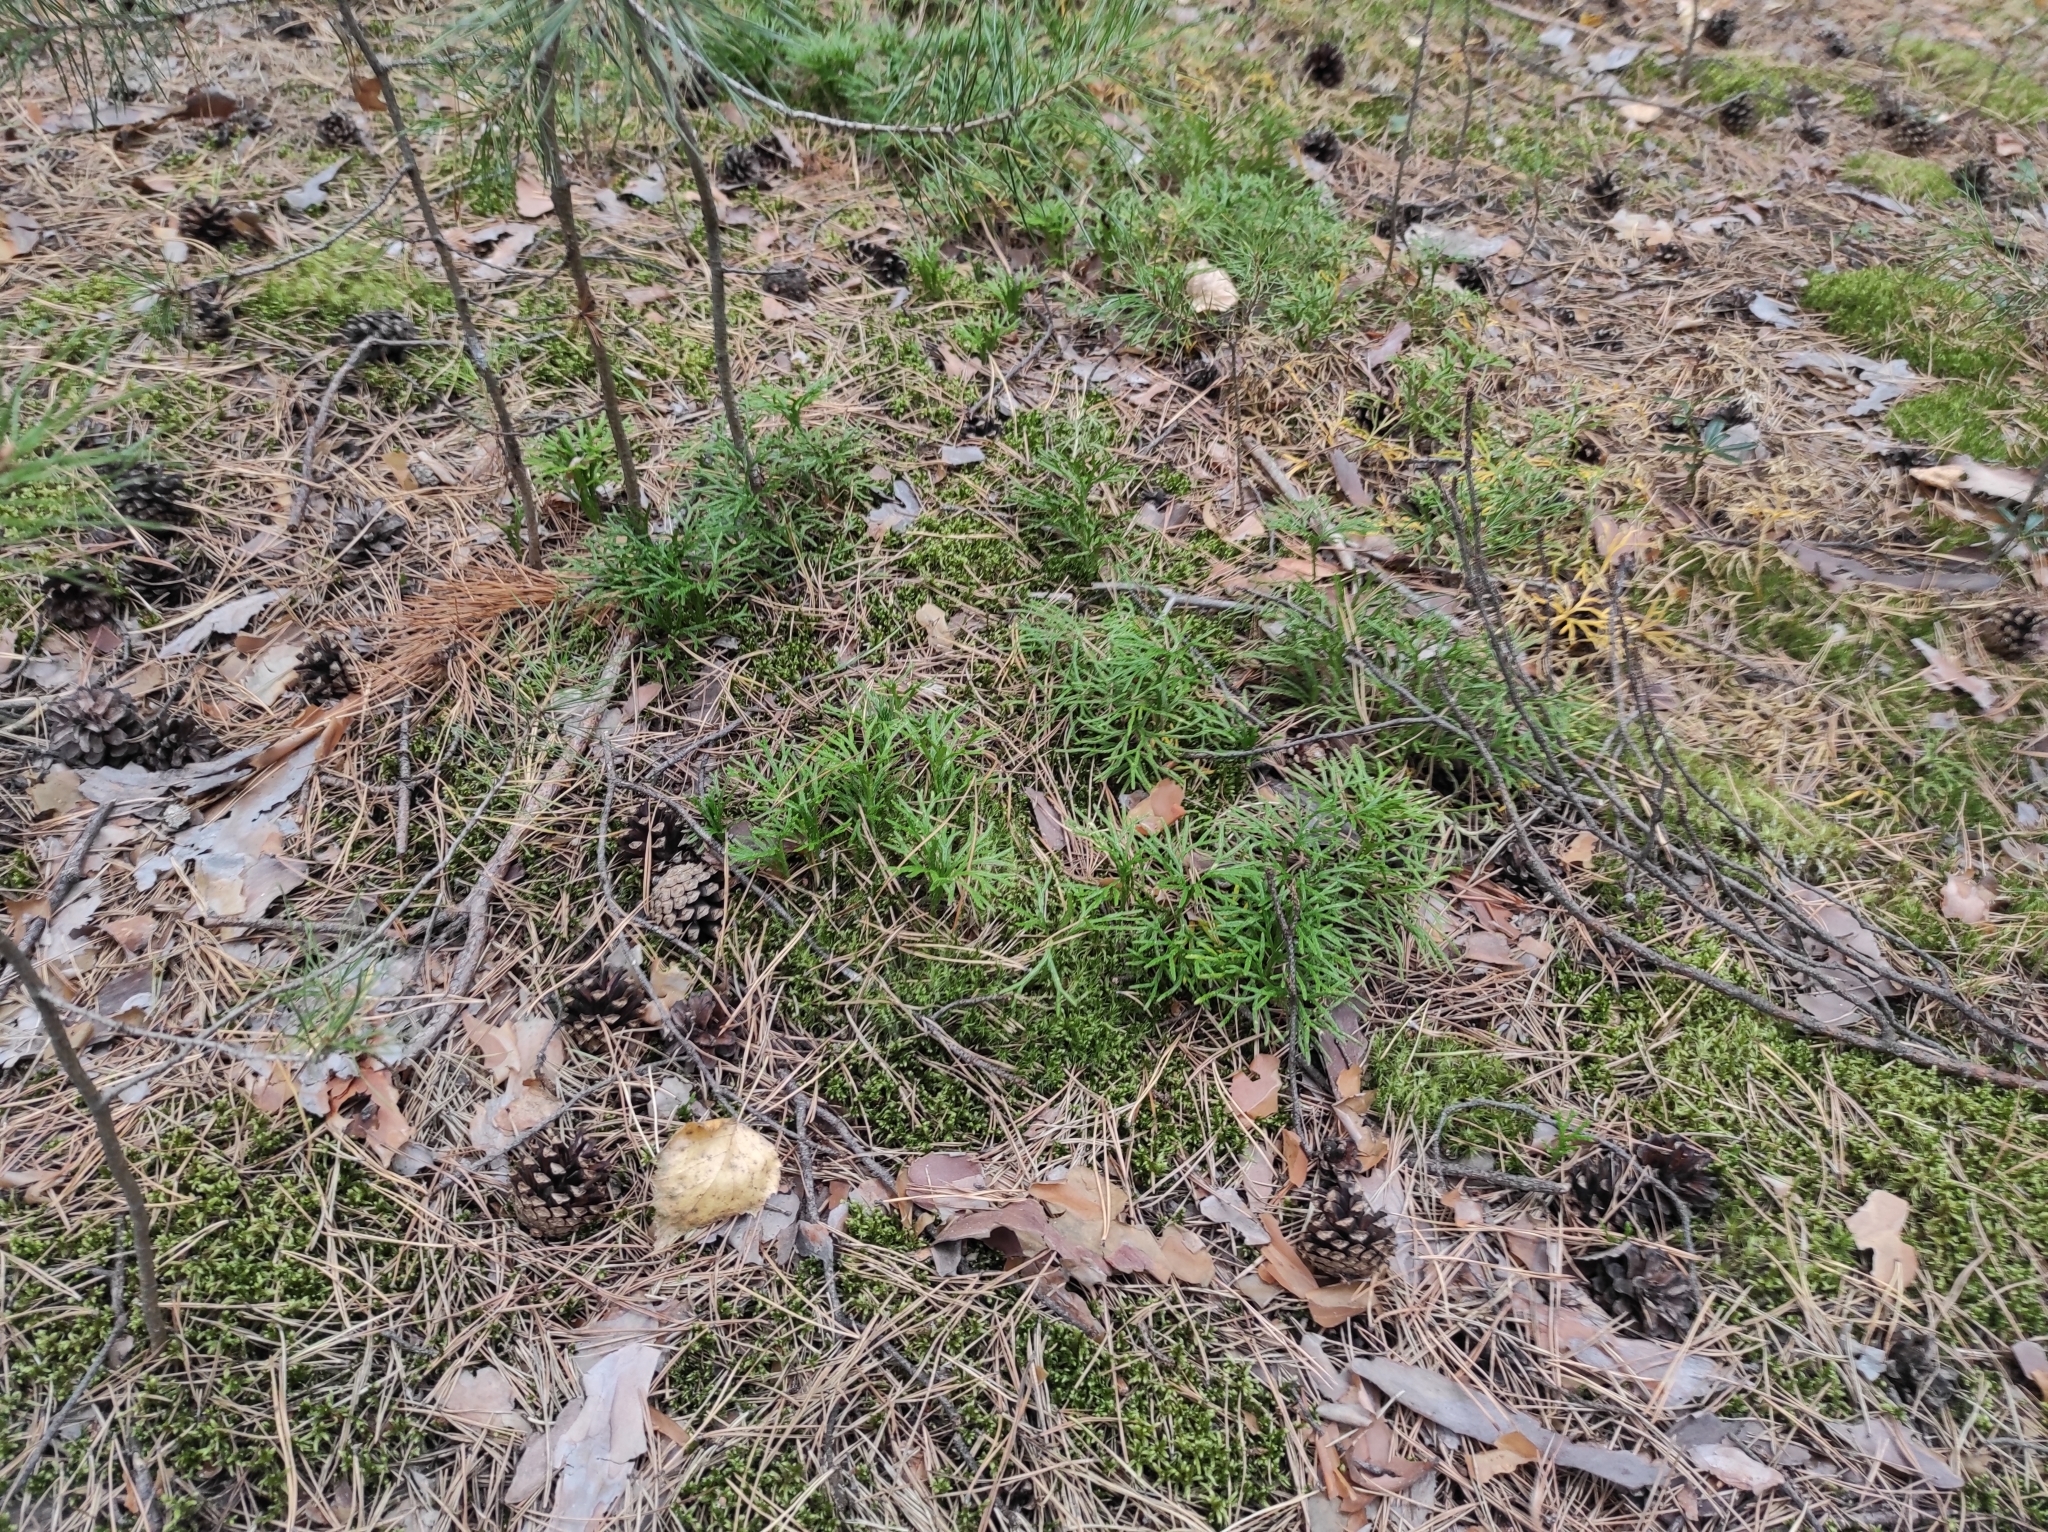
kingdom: Plantae
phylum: Tracheophyta
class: Lycopodiopsida
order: Lycopodiales
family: Lycopodiaceae
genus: Diphasiastrum
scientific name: Diphasiastrum complanatum
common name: Northern running-pine
